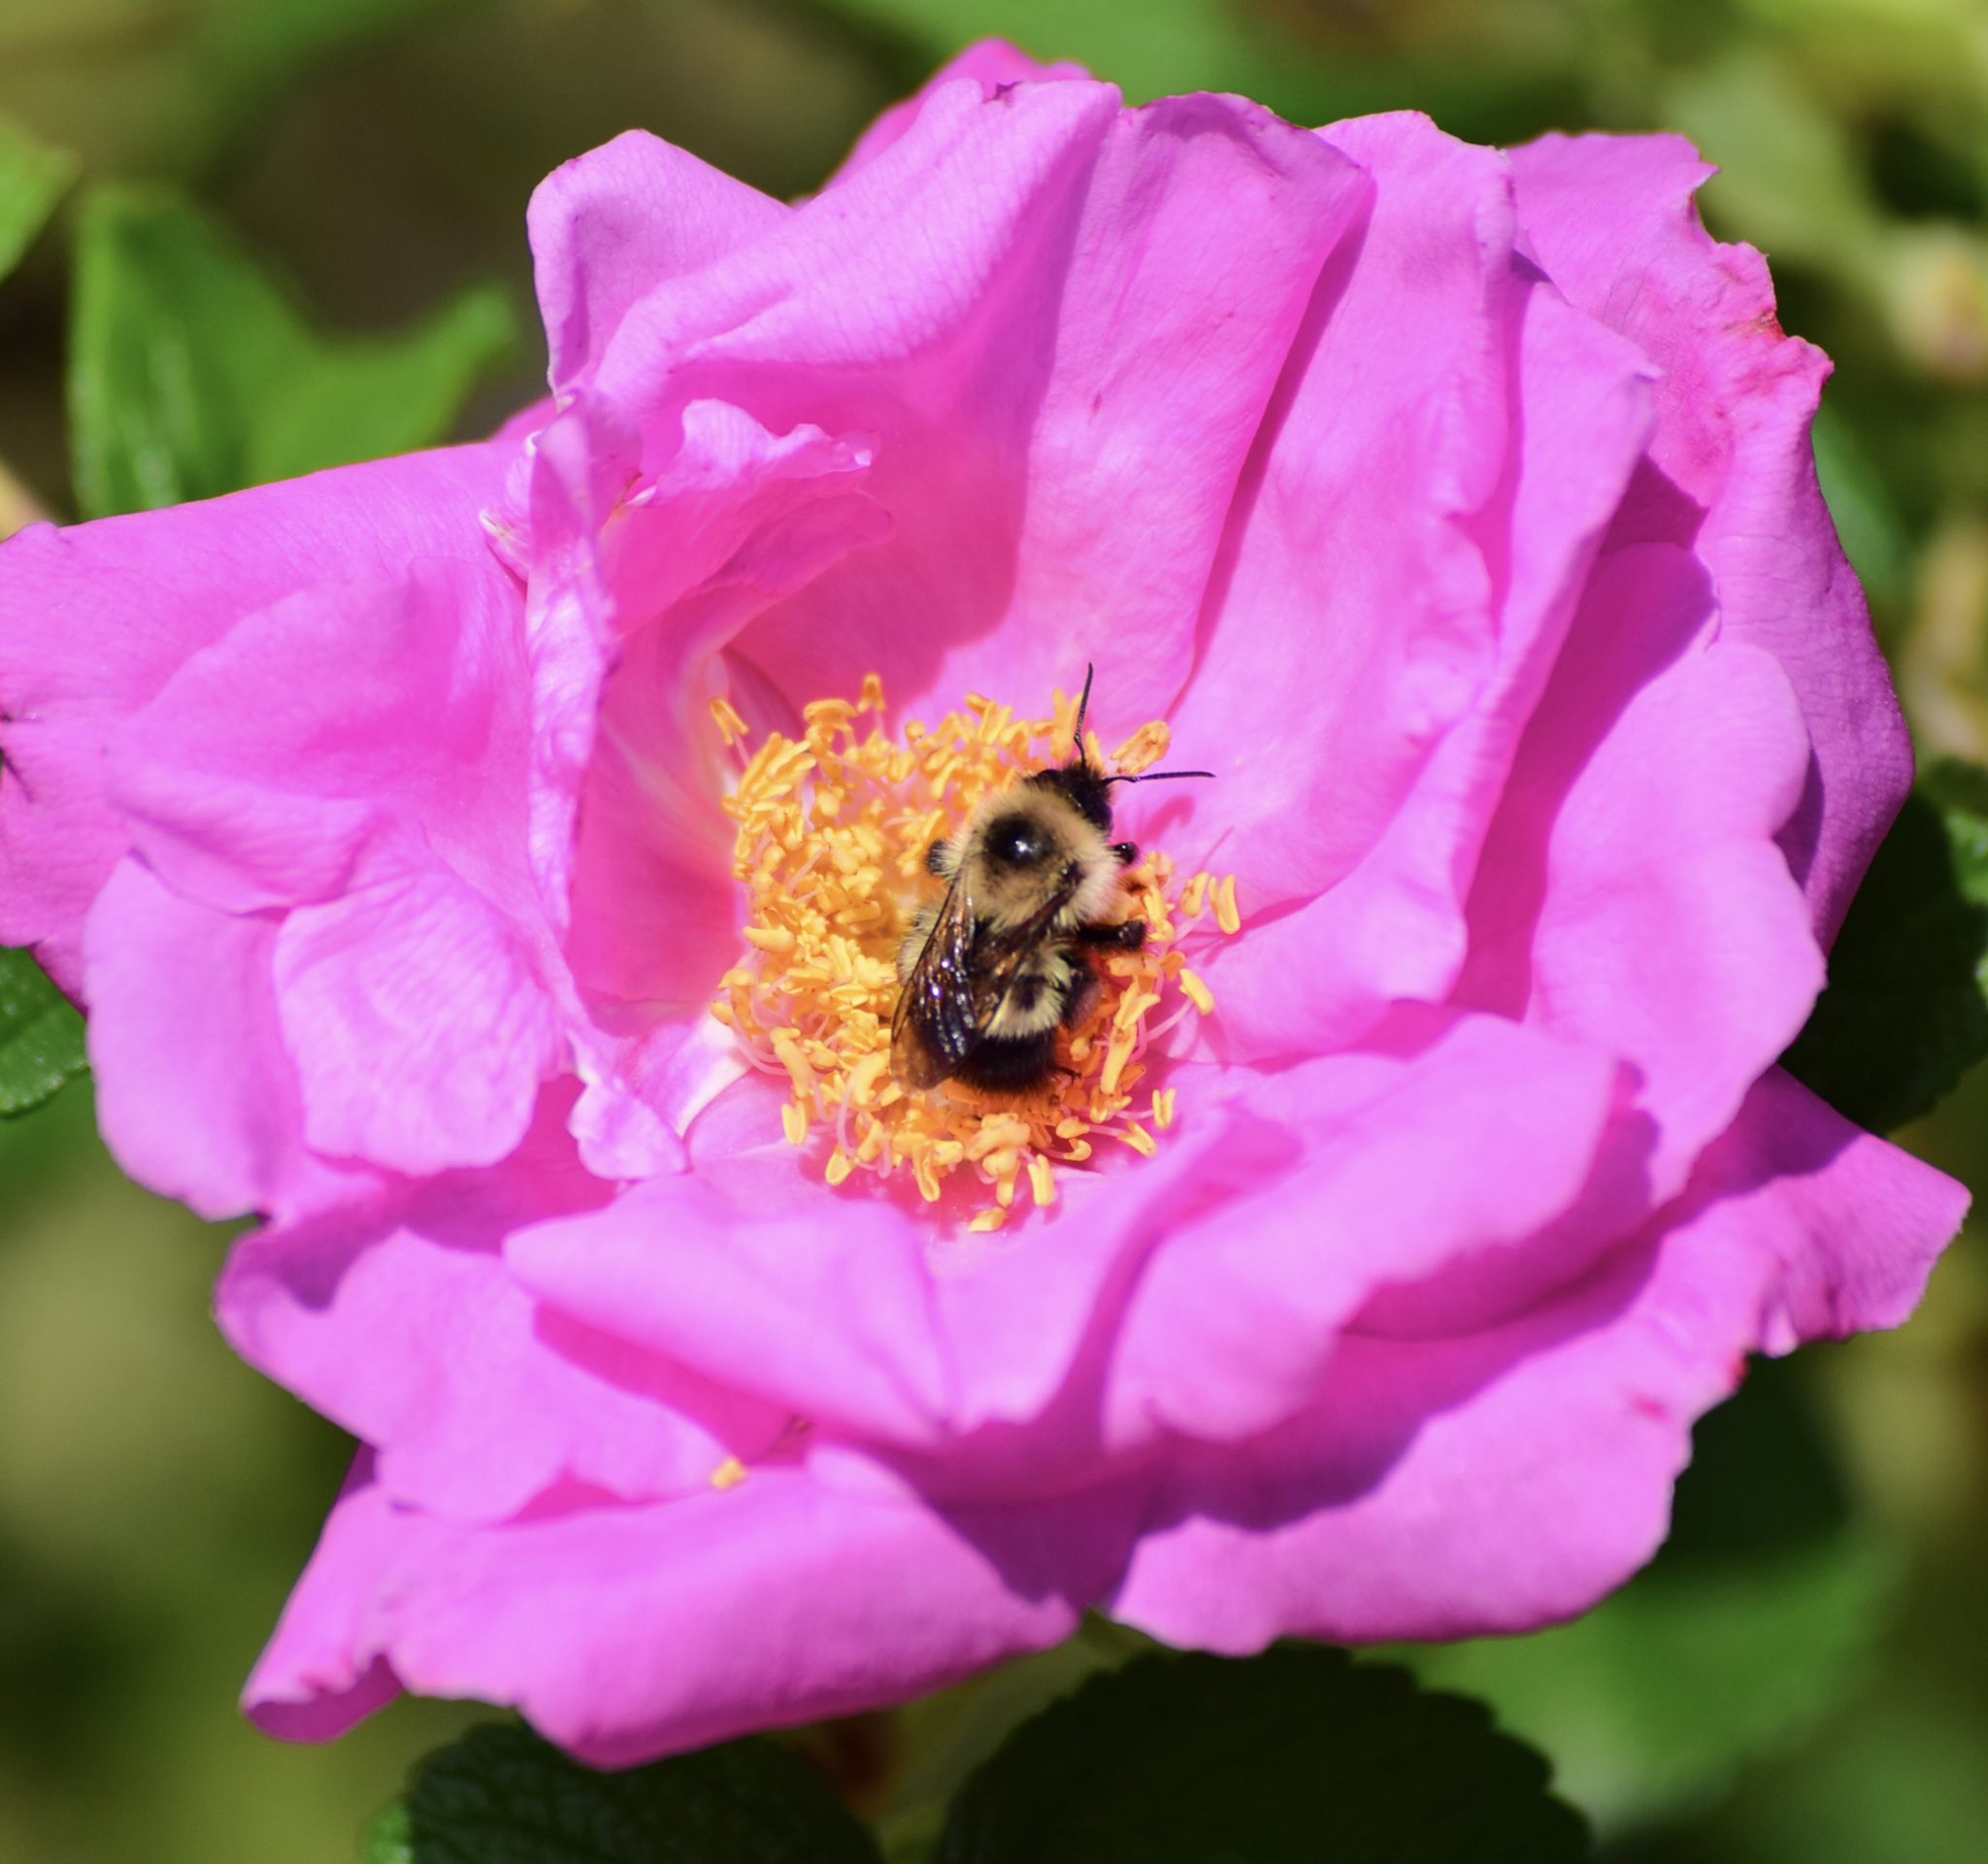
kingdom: Animalia
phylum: Arthropoda
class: Insecta
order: Hymenoptera
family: Apidae
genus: Pyrobombus
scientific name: Pyrobombus
